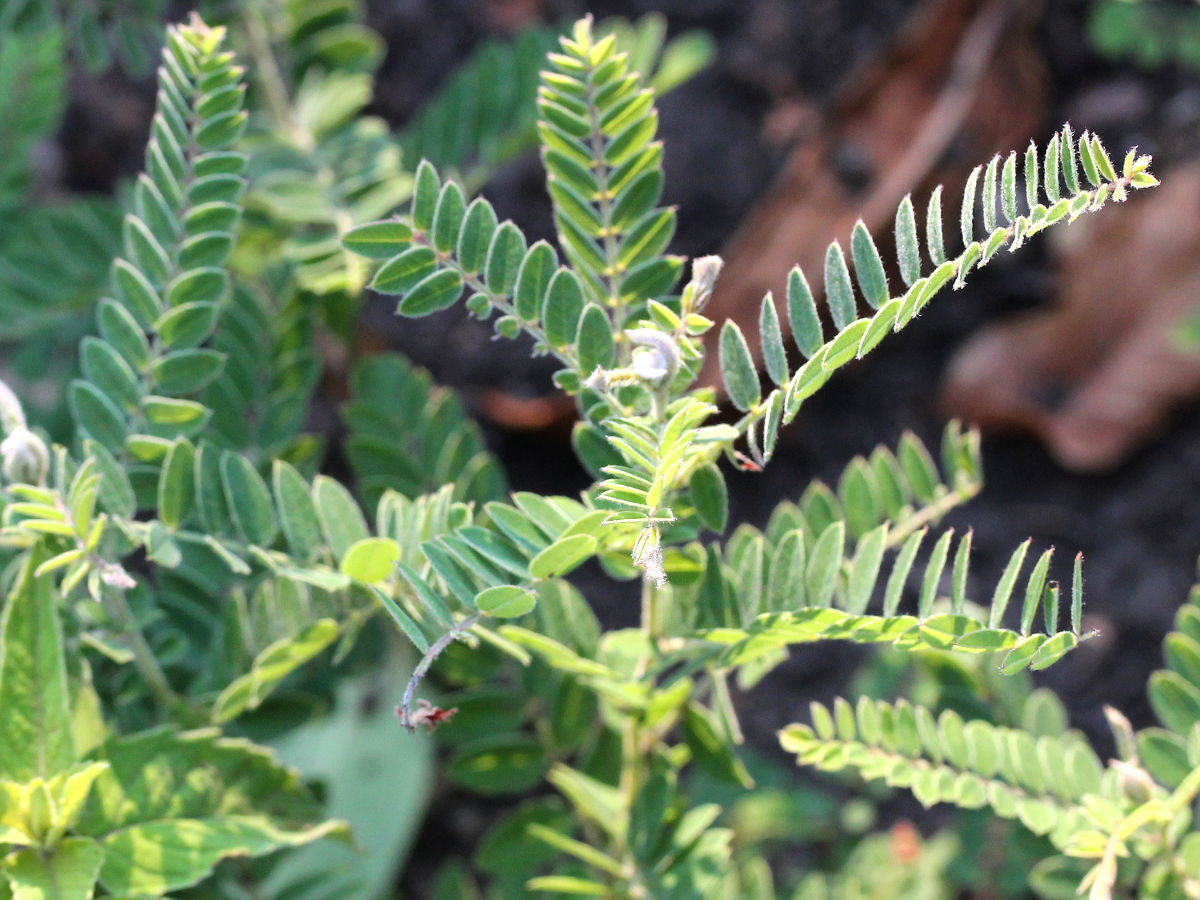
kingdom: Plantae
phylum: Tracheophyta
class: Magnoliopsida
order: Fabales
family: Fabaceae
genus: Dalea
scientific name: Dalea foliosa
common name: Leafy prairie-clover
